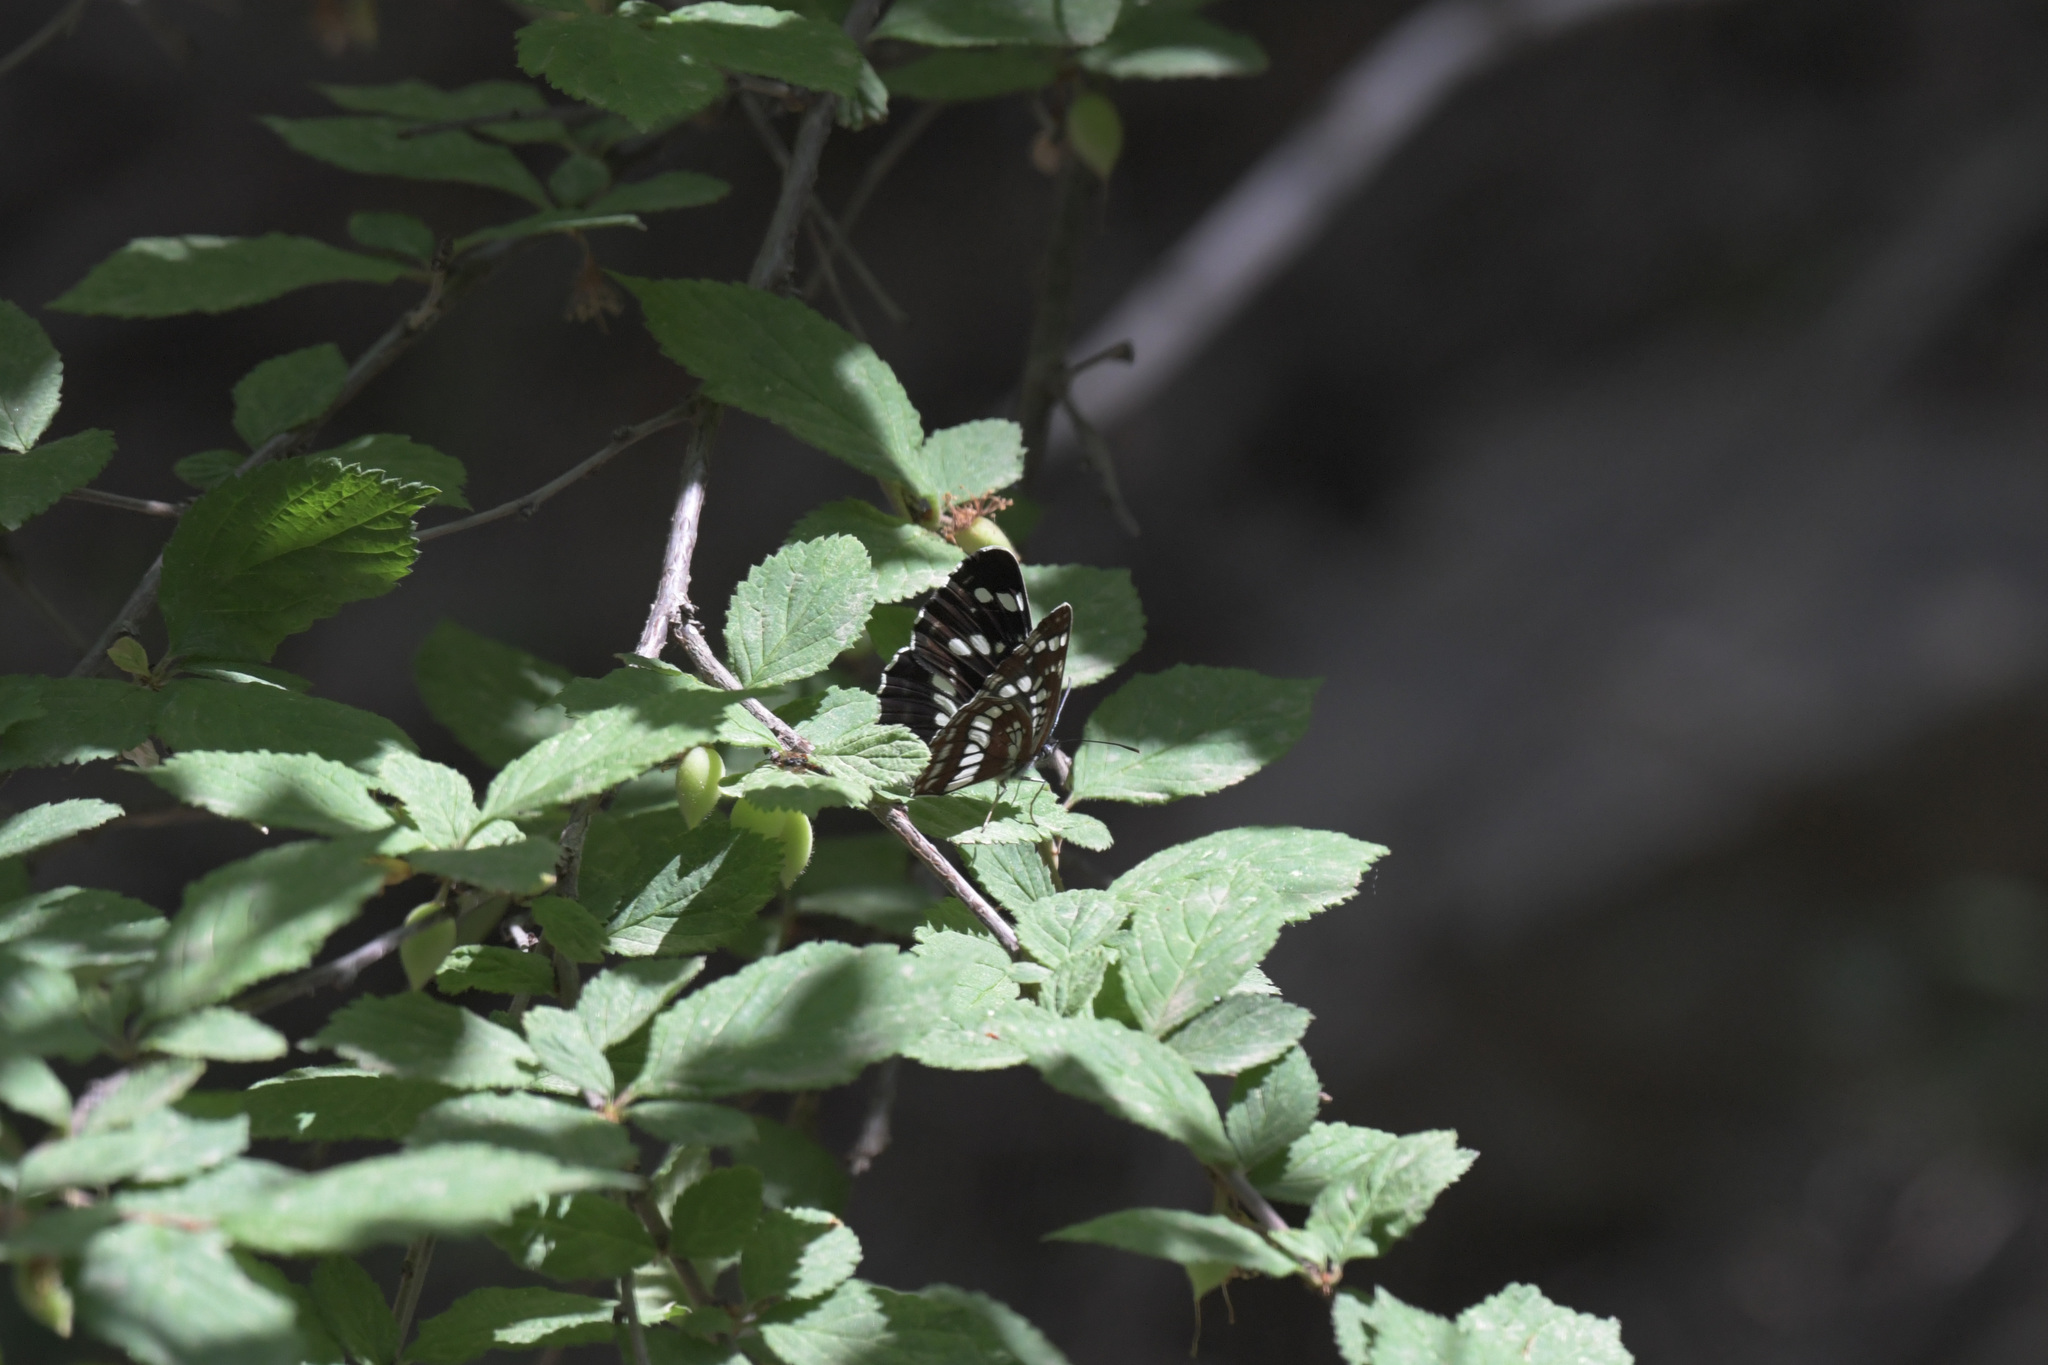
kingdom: Animalia
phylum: Arthropoda
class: Insecta
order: Lepidoptera
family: Nymphalidae
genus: Neptis
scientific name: Neptis rivularis
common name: Hungarian glider
